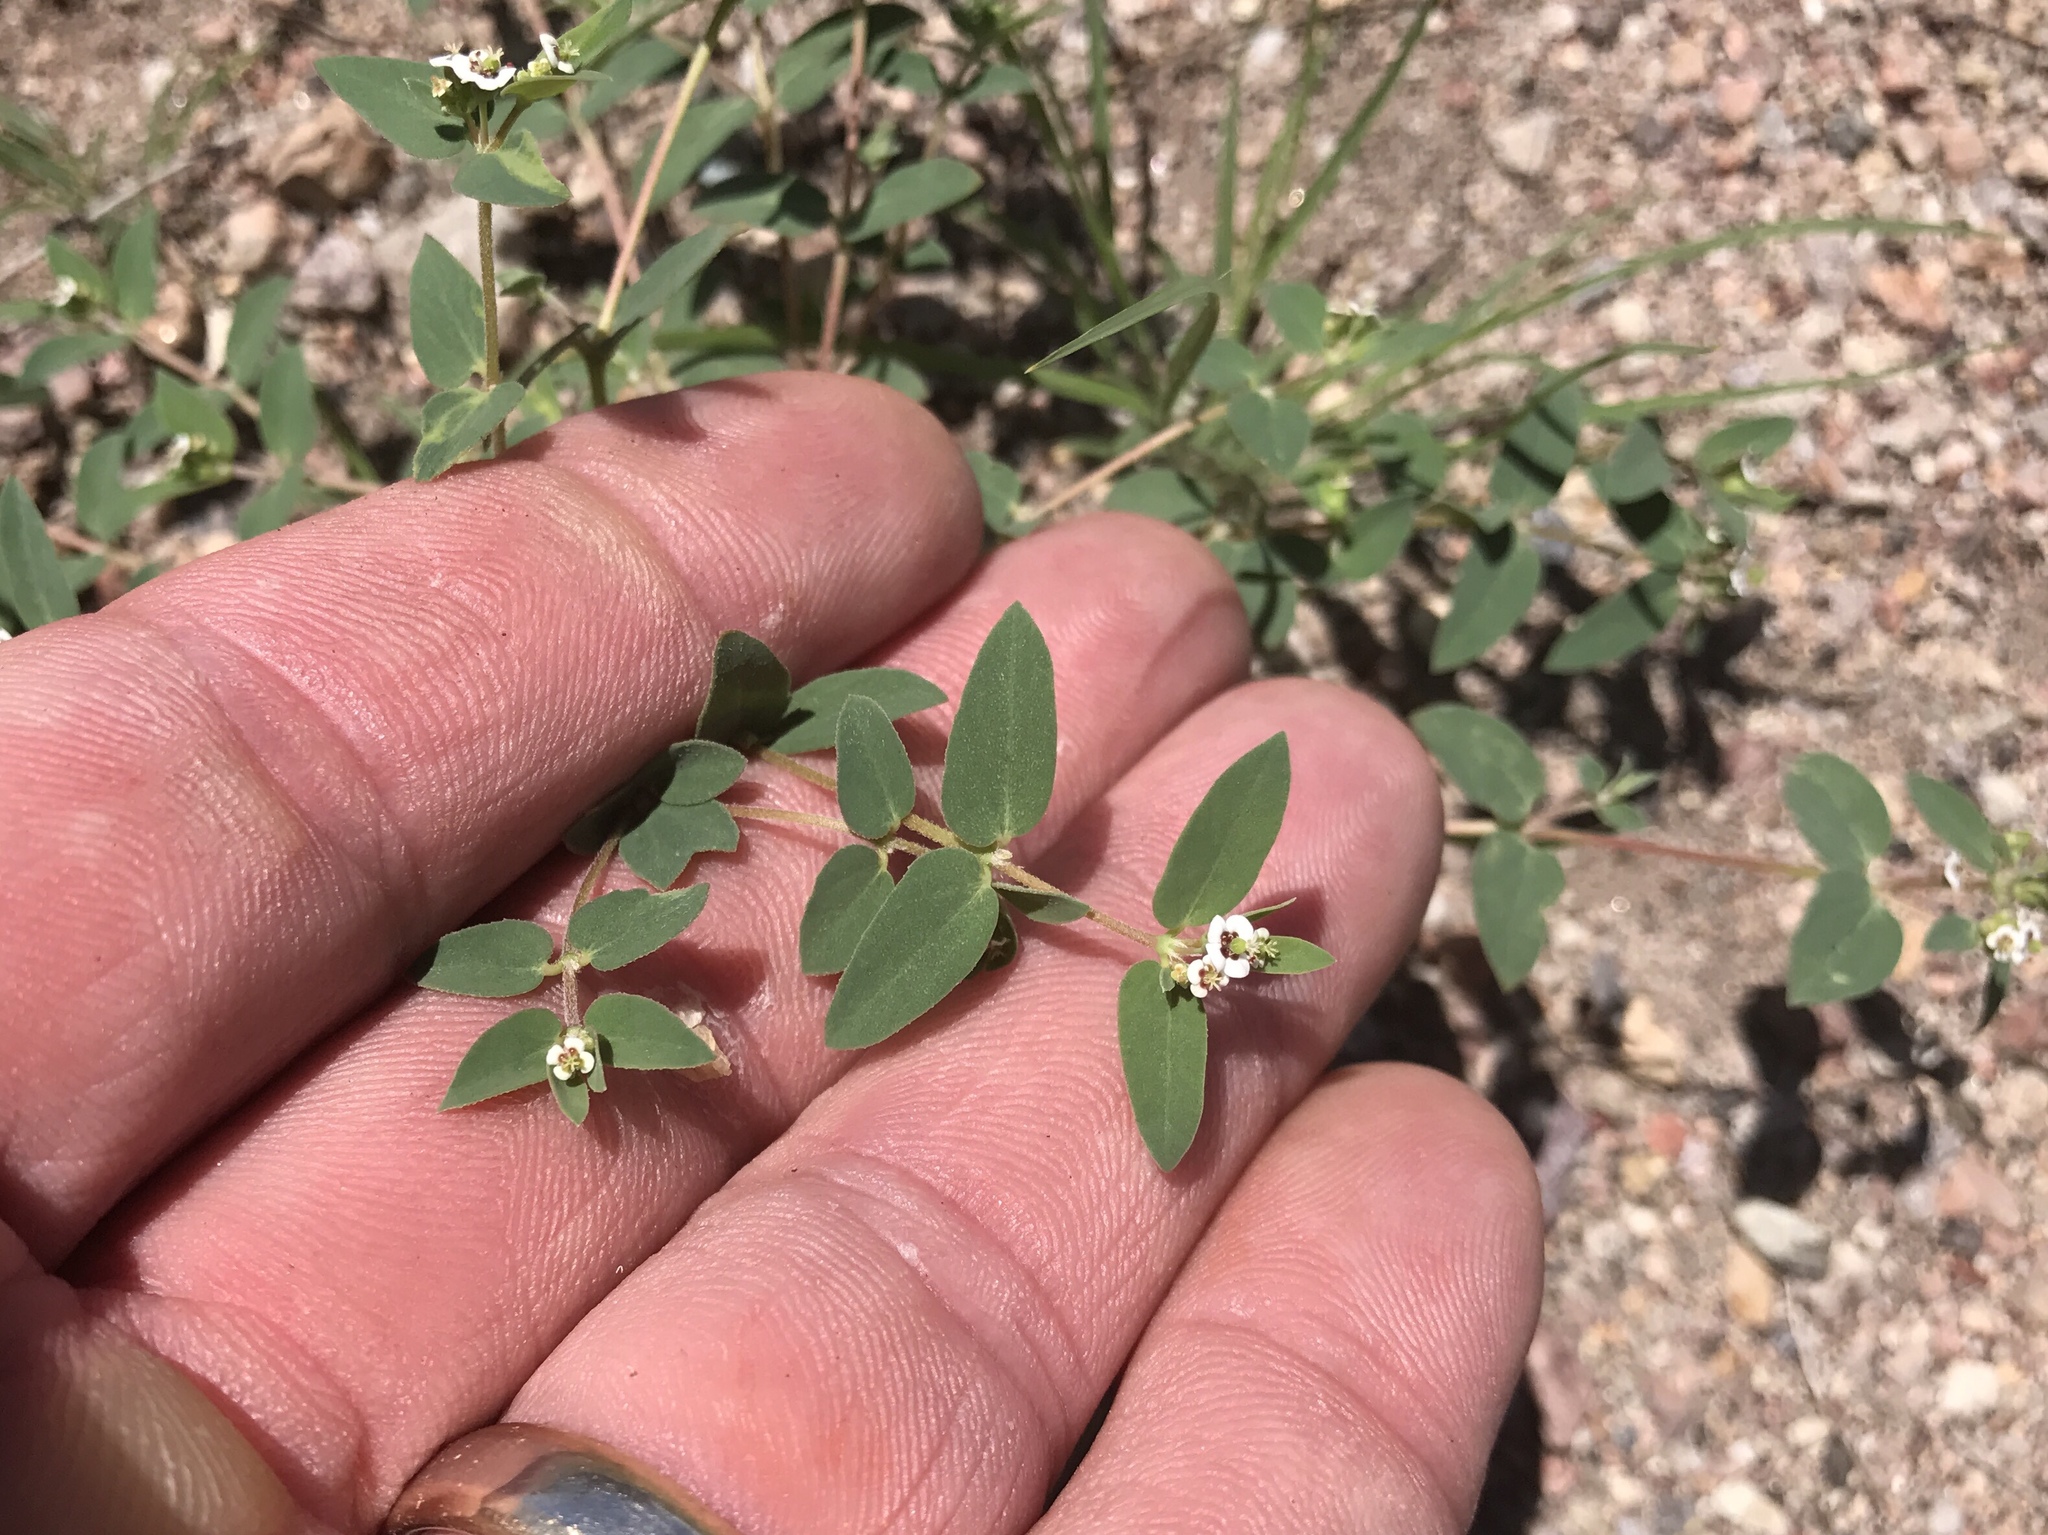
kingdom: Plantae
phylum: Tracheophyta
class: Magnoliopsida
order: Malpighiales
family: Euphorbiaceae
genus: Euphorbia
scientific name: Euphorbia capitellata
